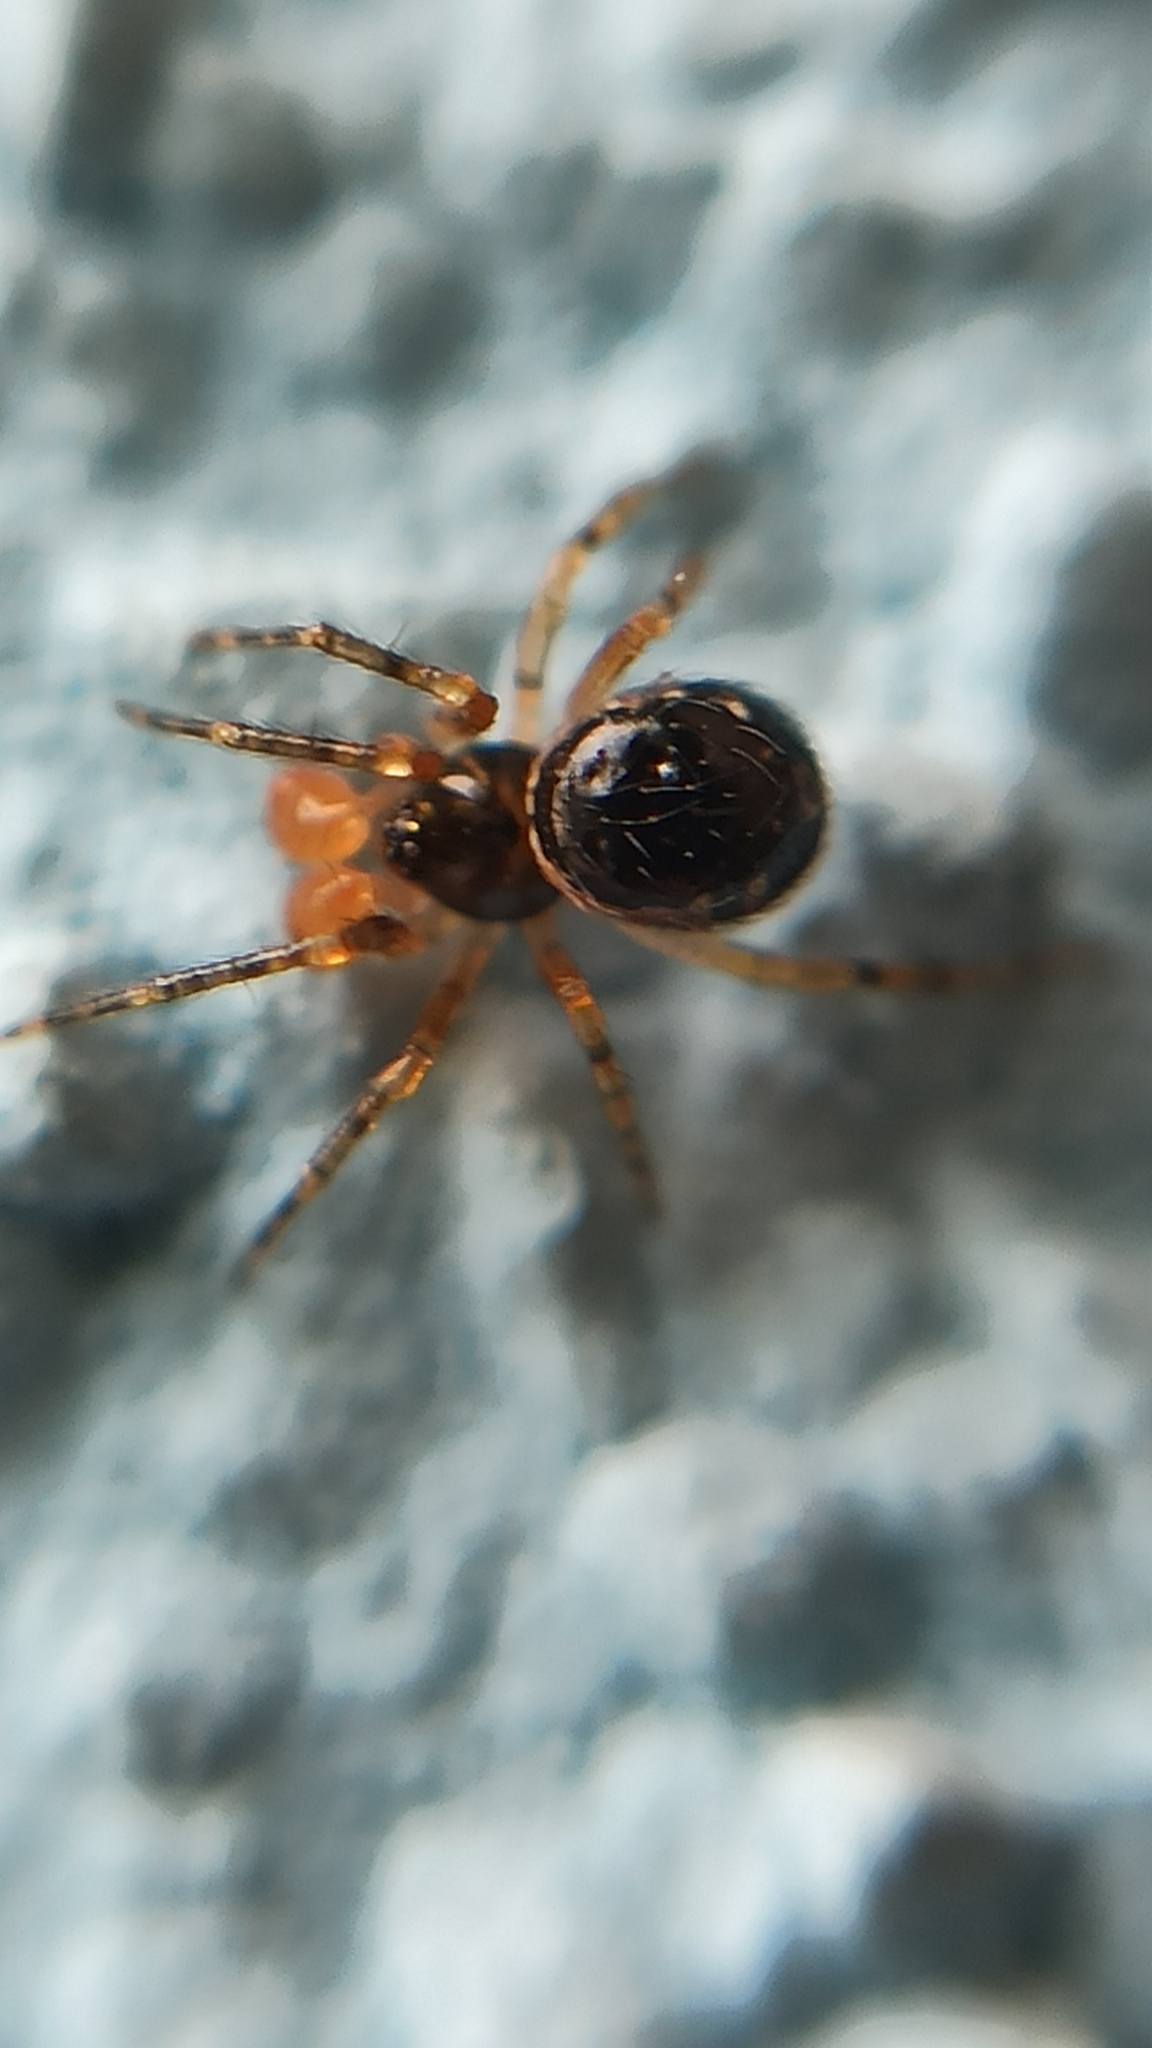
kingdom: Animalia
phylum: Arthropoda
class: Arachnida
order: Araneae
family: Theridiidae
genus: Sardinidion
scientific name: Sardinidion blackwalli
